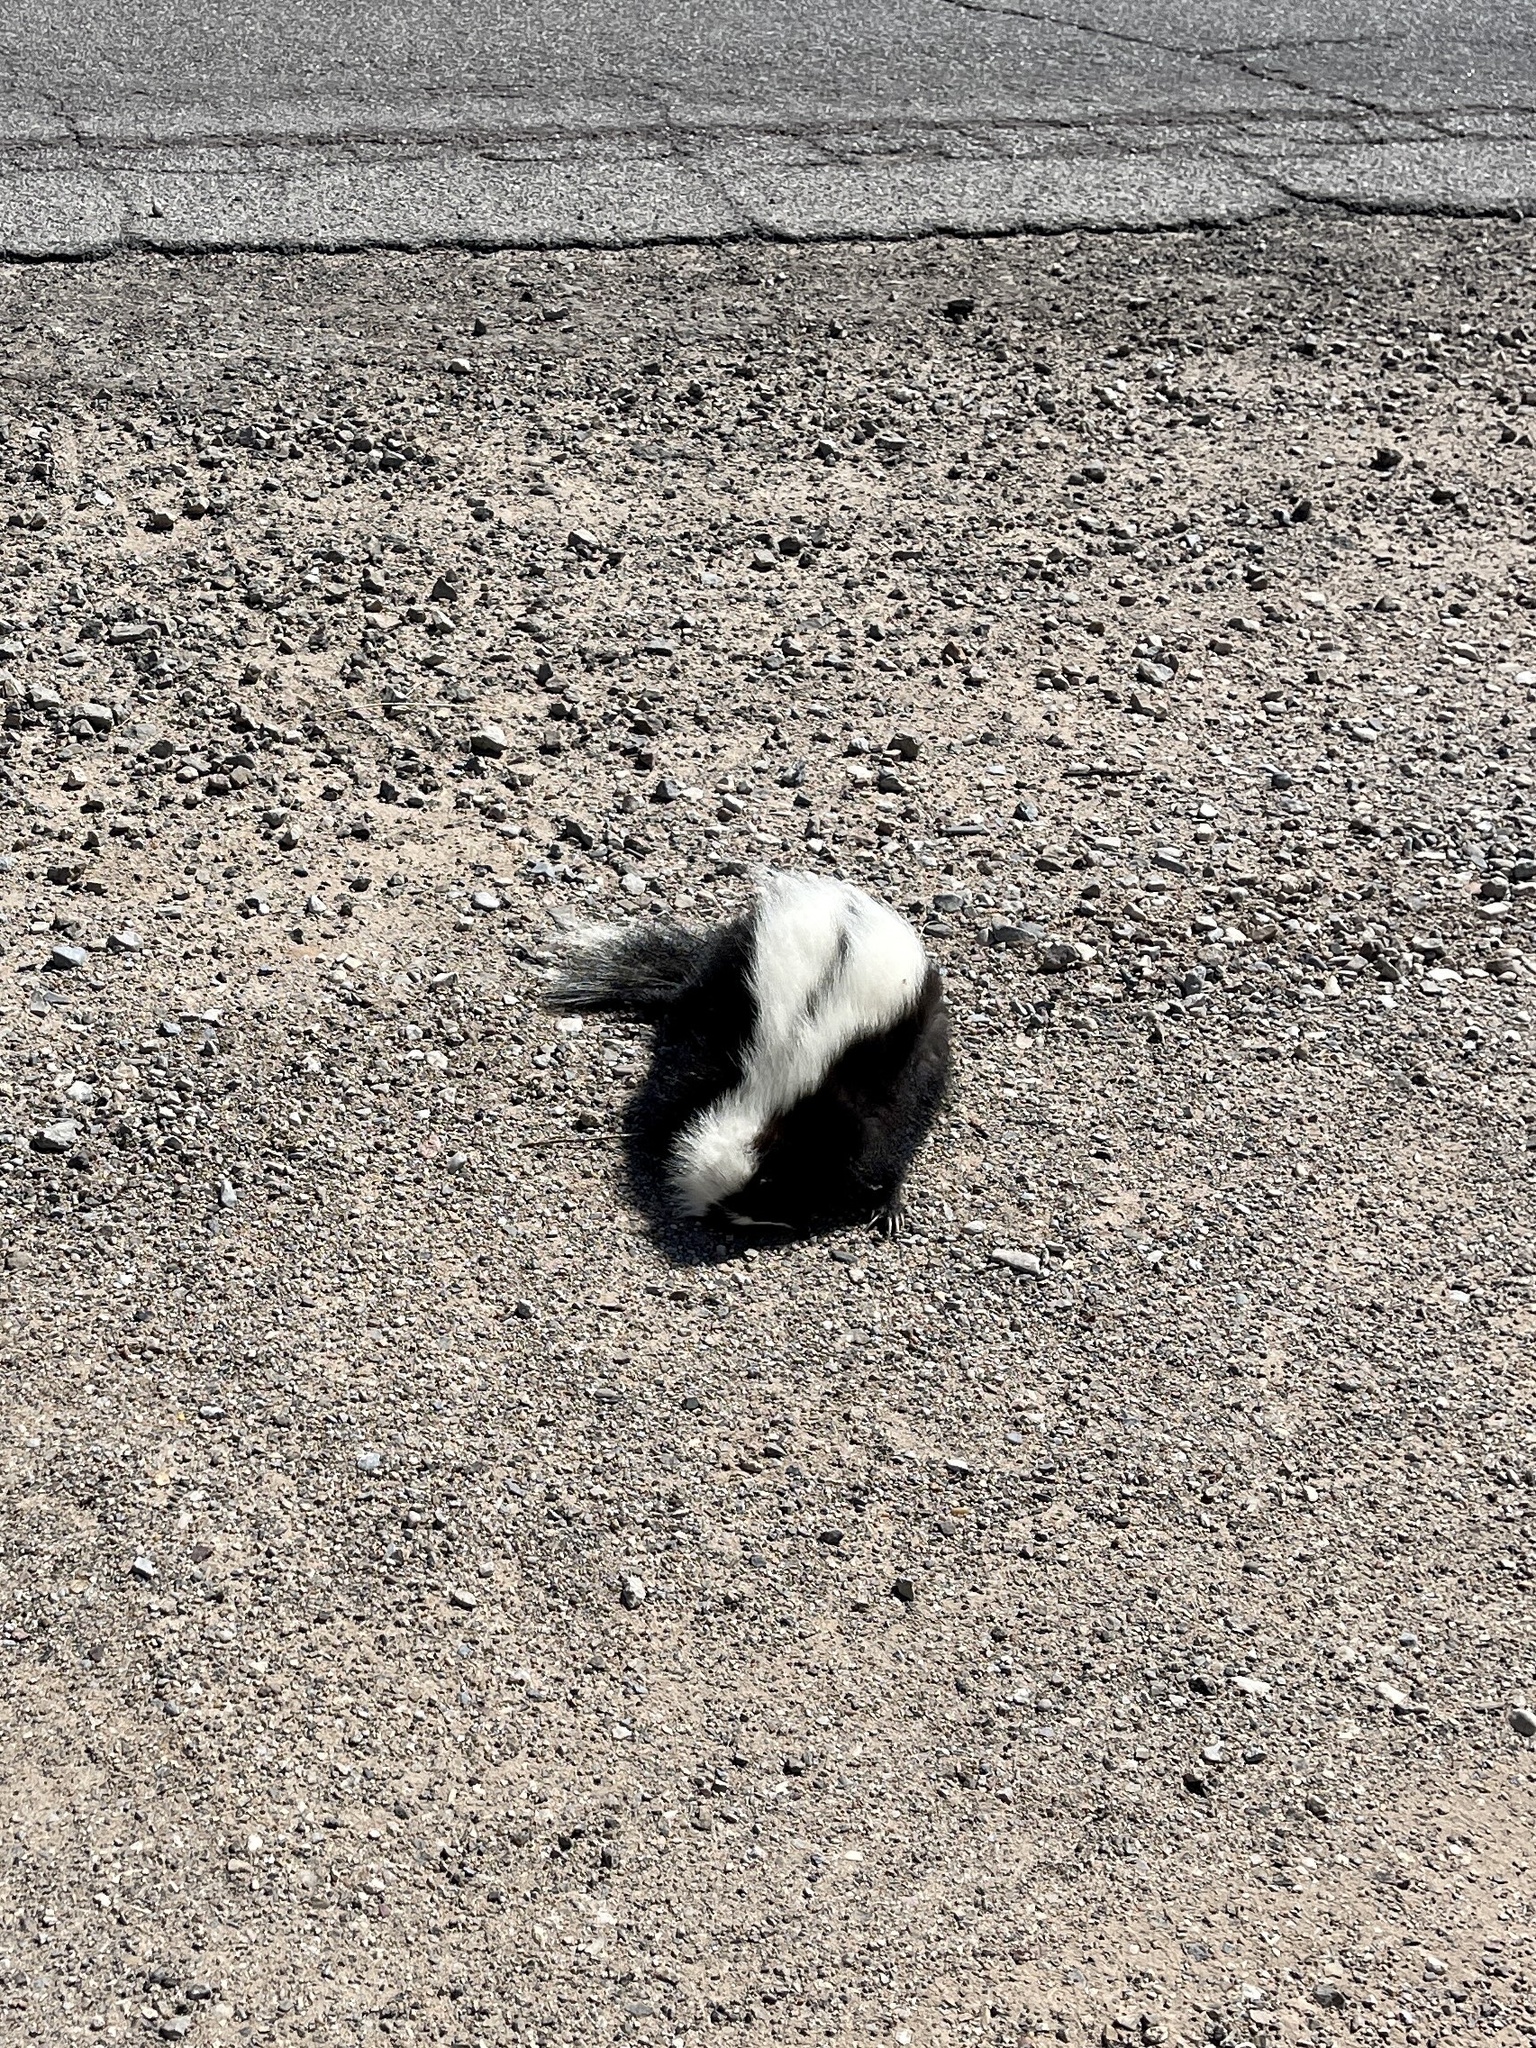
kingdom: Animalia
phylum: Chordata
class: Mammalia
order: Carnivora
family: Mephitidae
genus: Mephitis
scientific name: Mephitis mephitis
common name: Striped skunk
